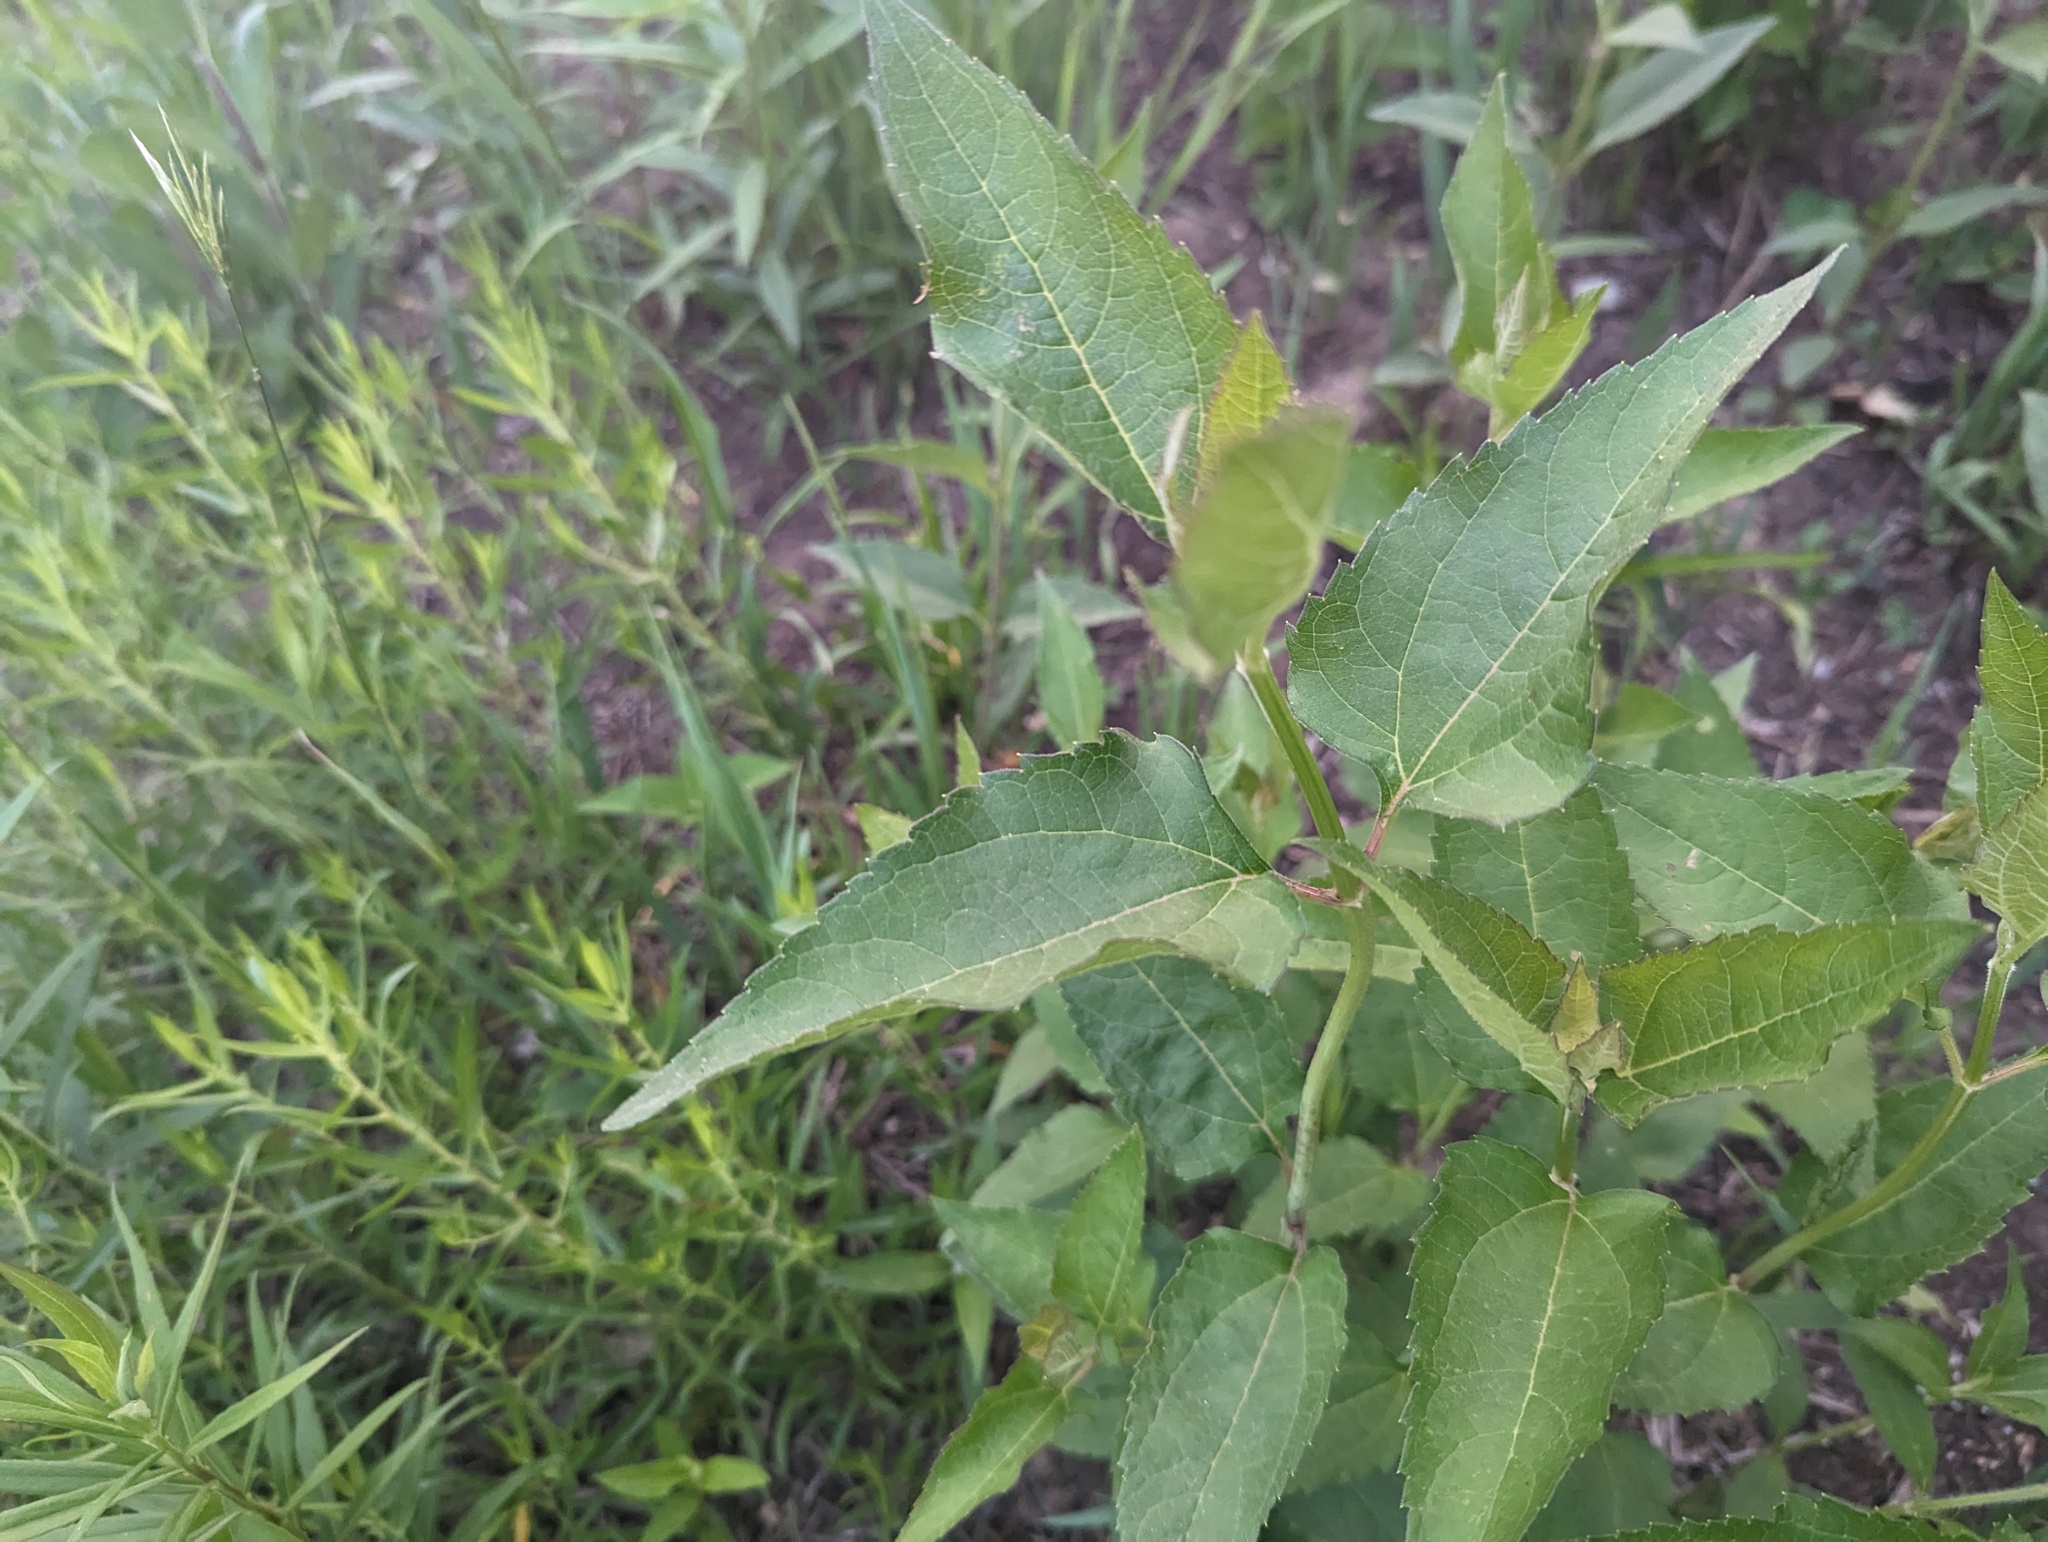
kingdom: Plantae
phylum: Tracheophyta
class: Magnoliopsida
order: Asterales
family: Asteraceae
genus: Heliopsis
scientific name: Heliopsis helianthoides
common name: False sunflower
